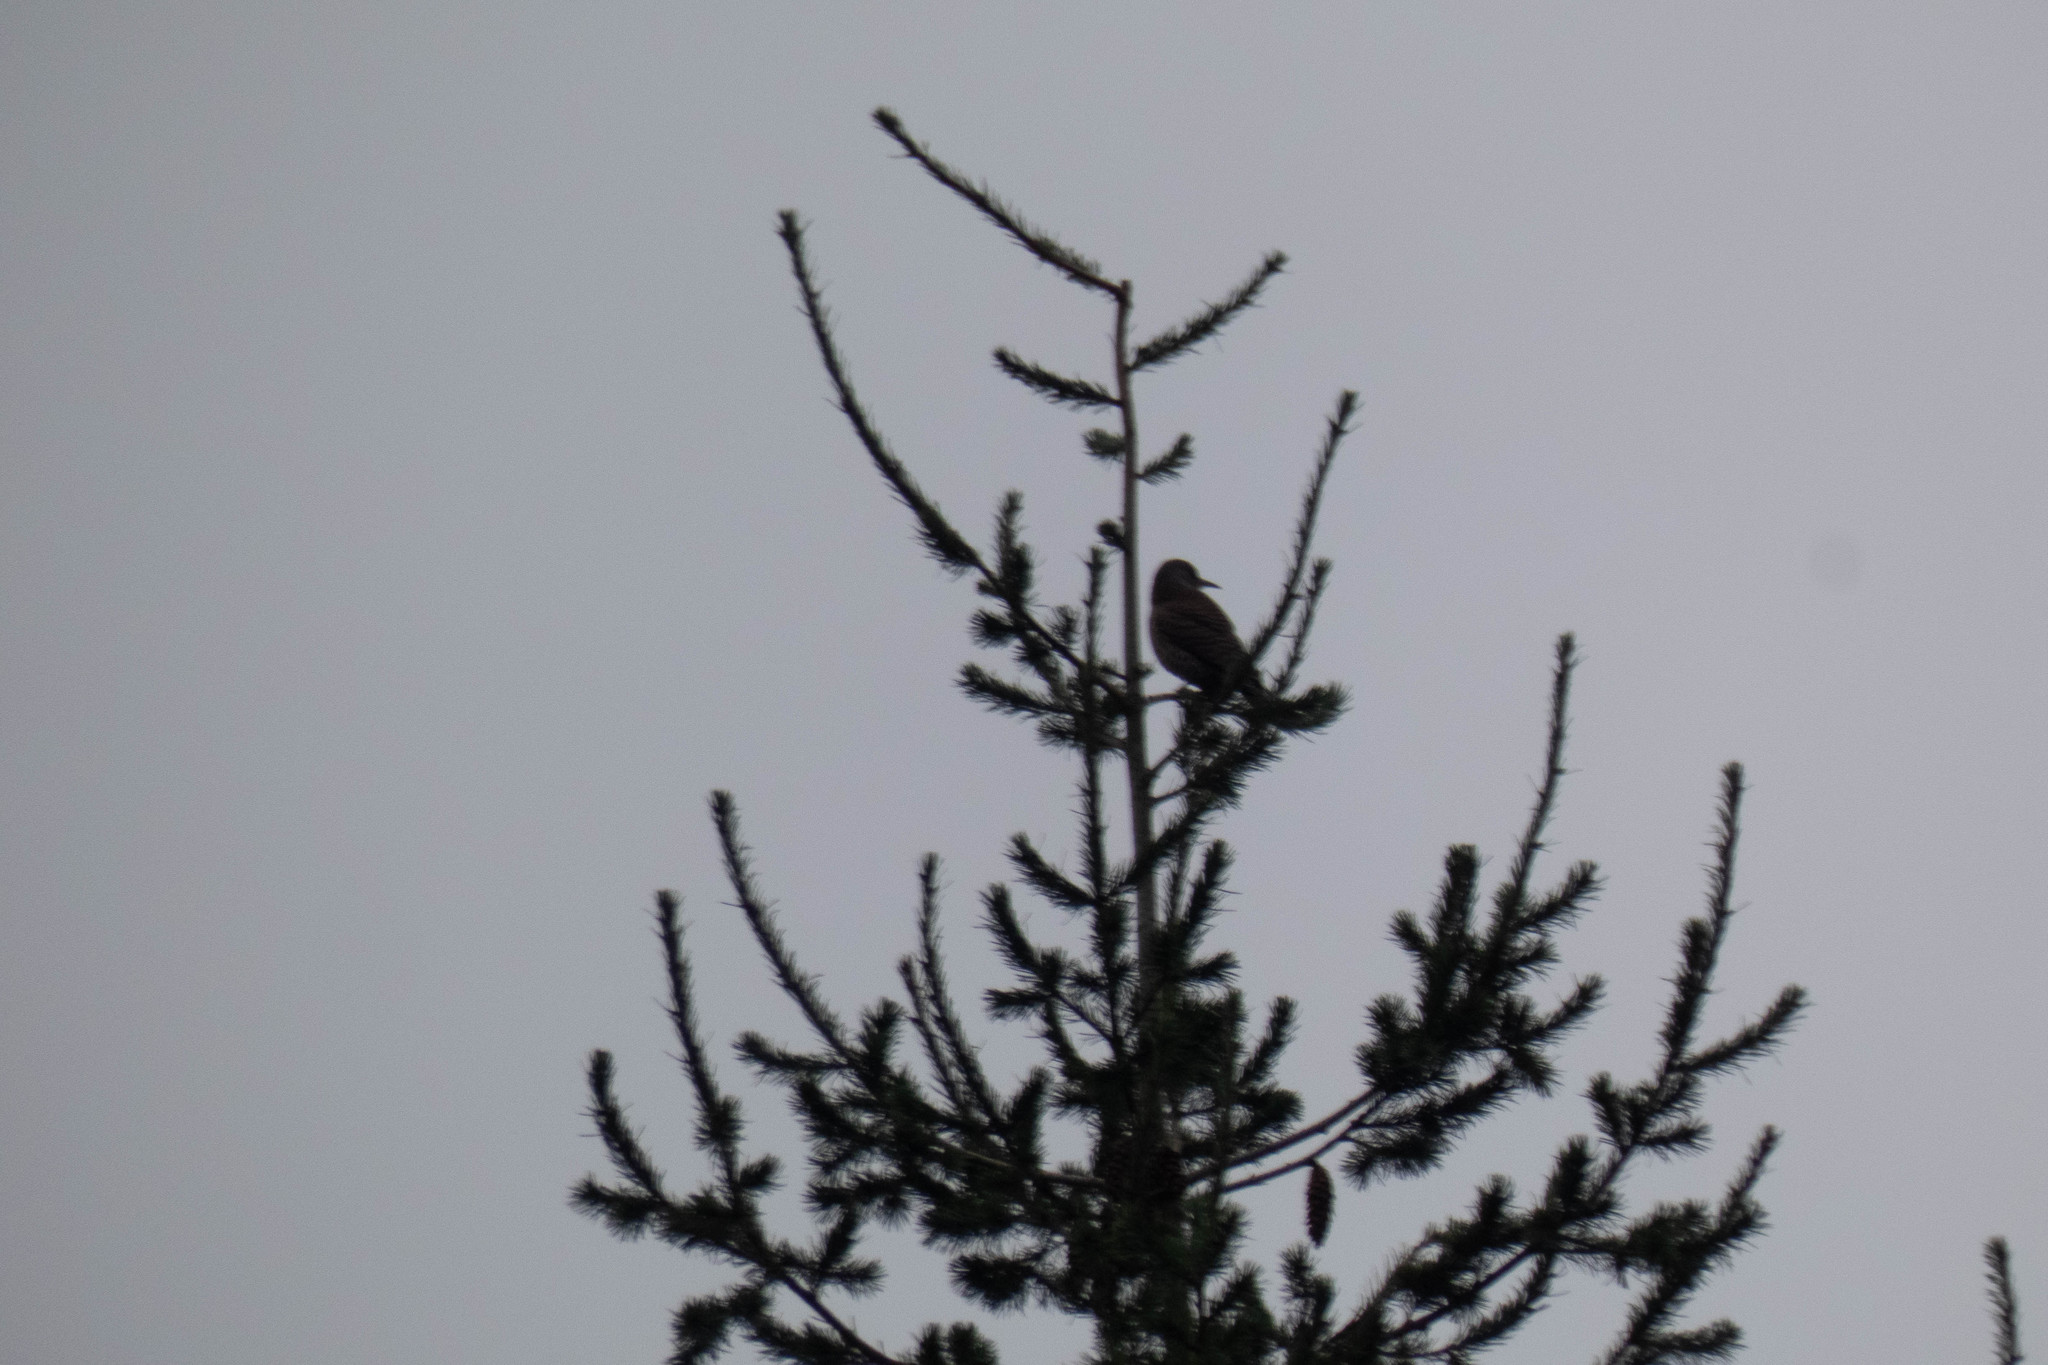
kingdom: Animalia
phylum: Chordata
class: Aves
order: Piciformes
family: Picidae
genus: Colaptes
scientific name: Colaptes auratus
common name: Northern flicker
